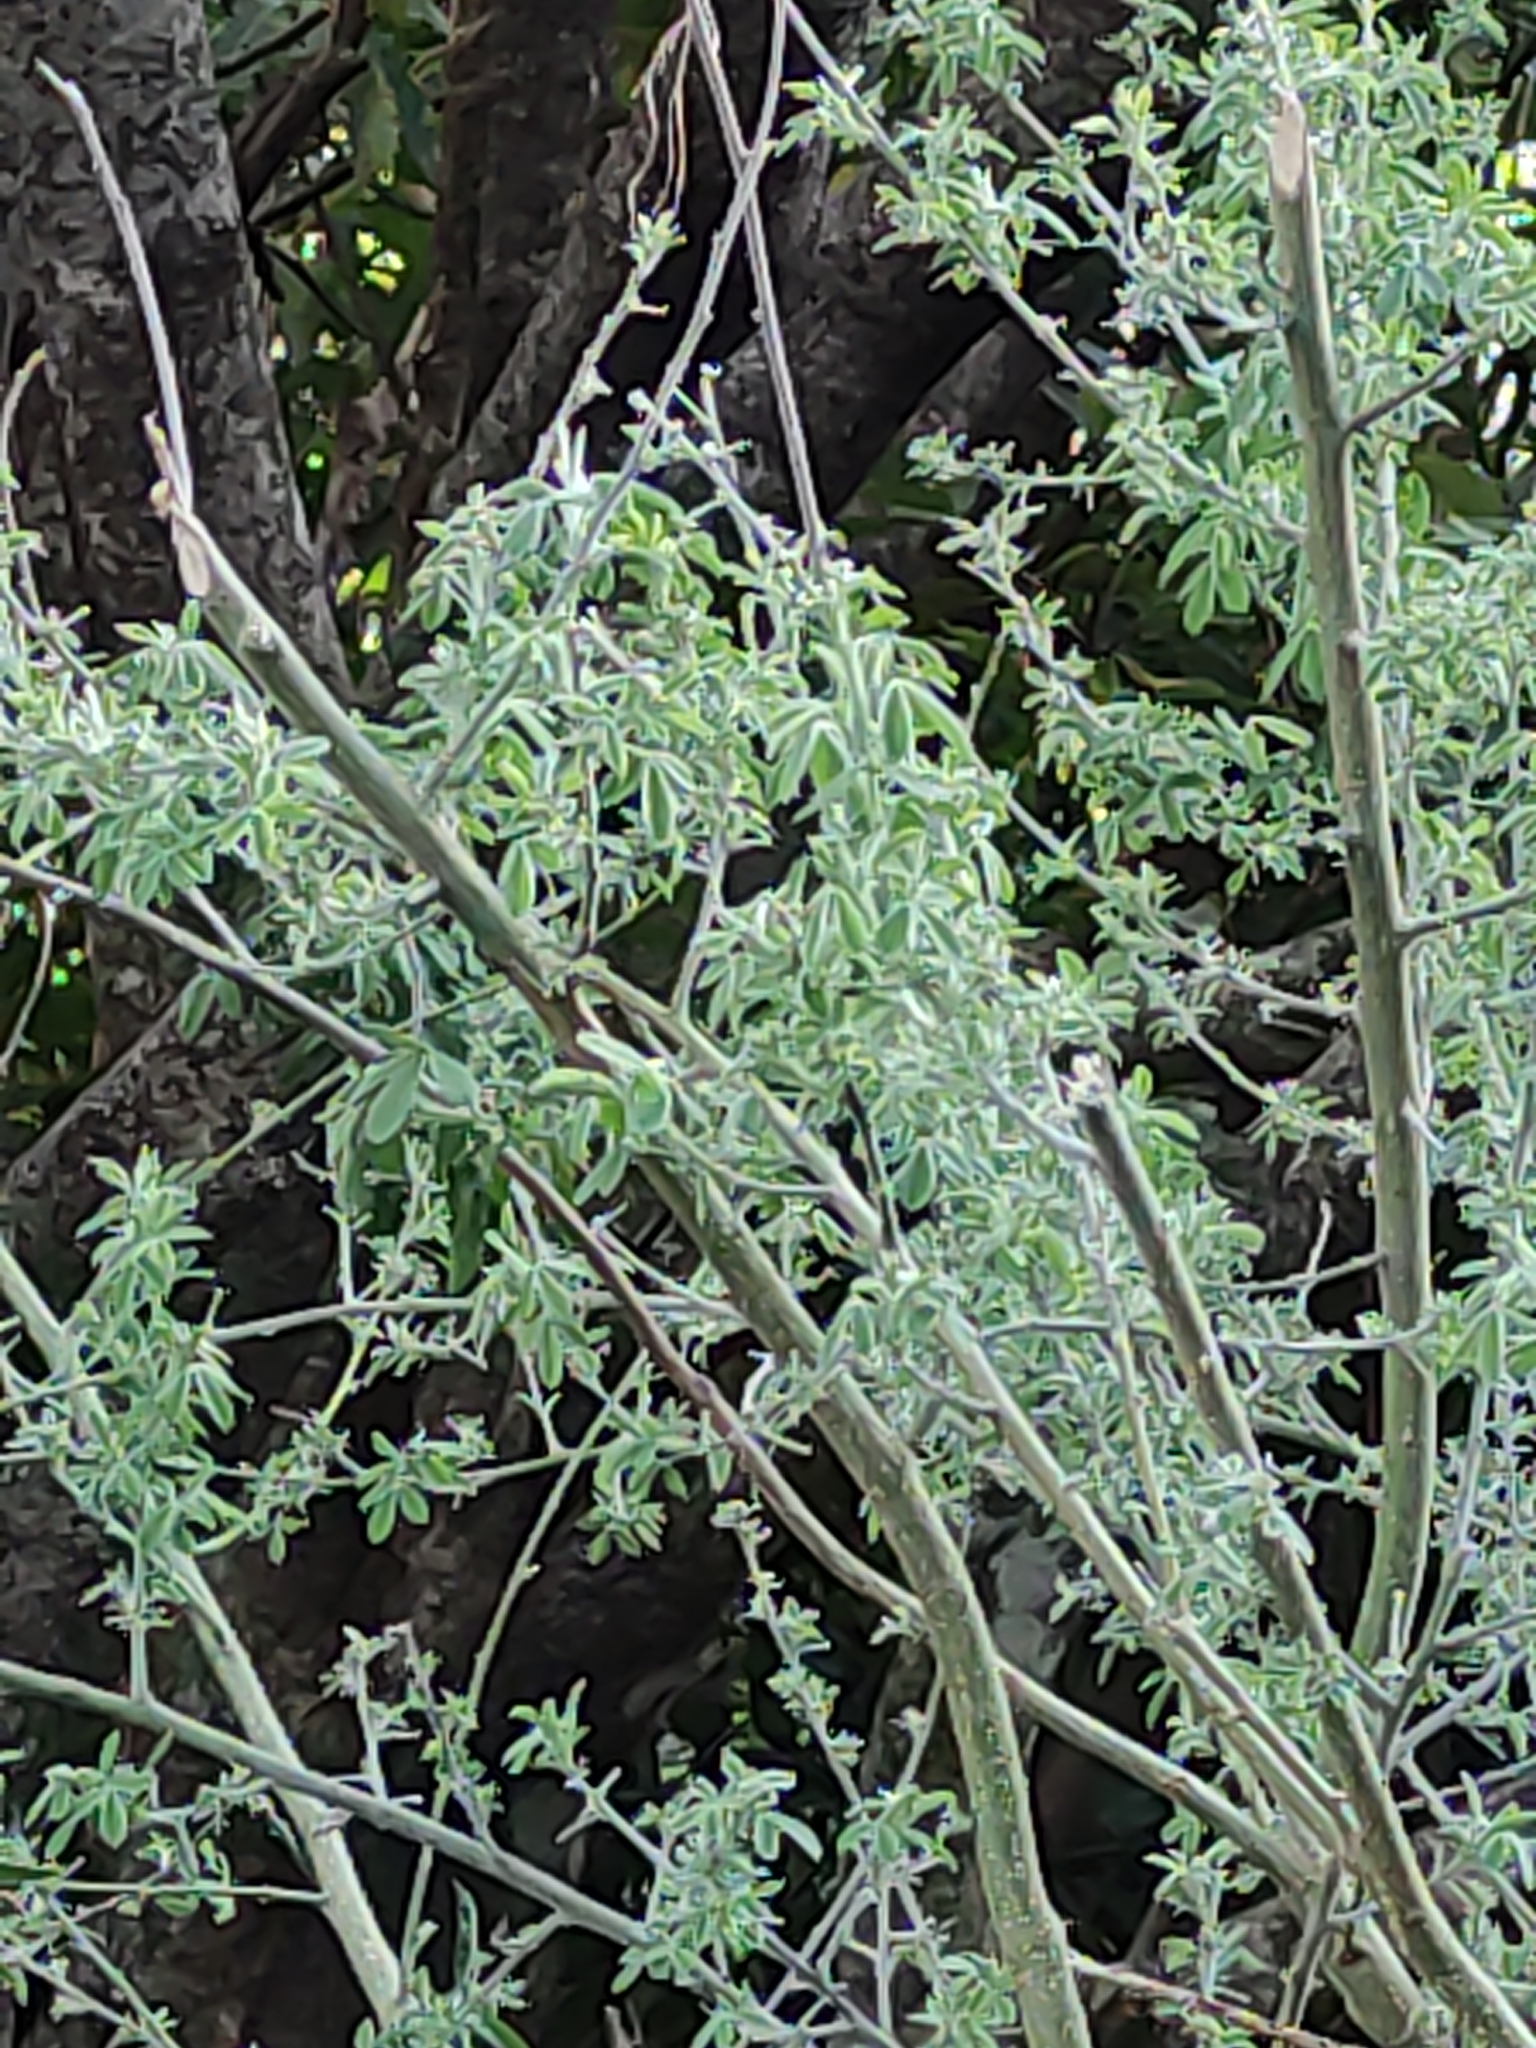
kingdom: Plantae
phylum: Tracheophyta
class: Magnoliopsida
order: Fabales
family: Fabaceae
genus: Chamaecytisus
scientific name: Chamaecytisus prolifer
